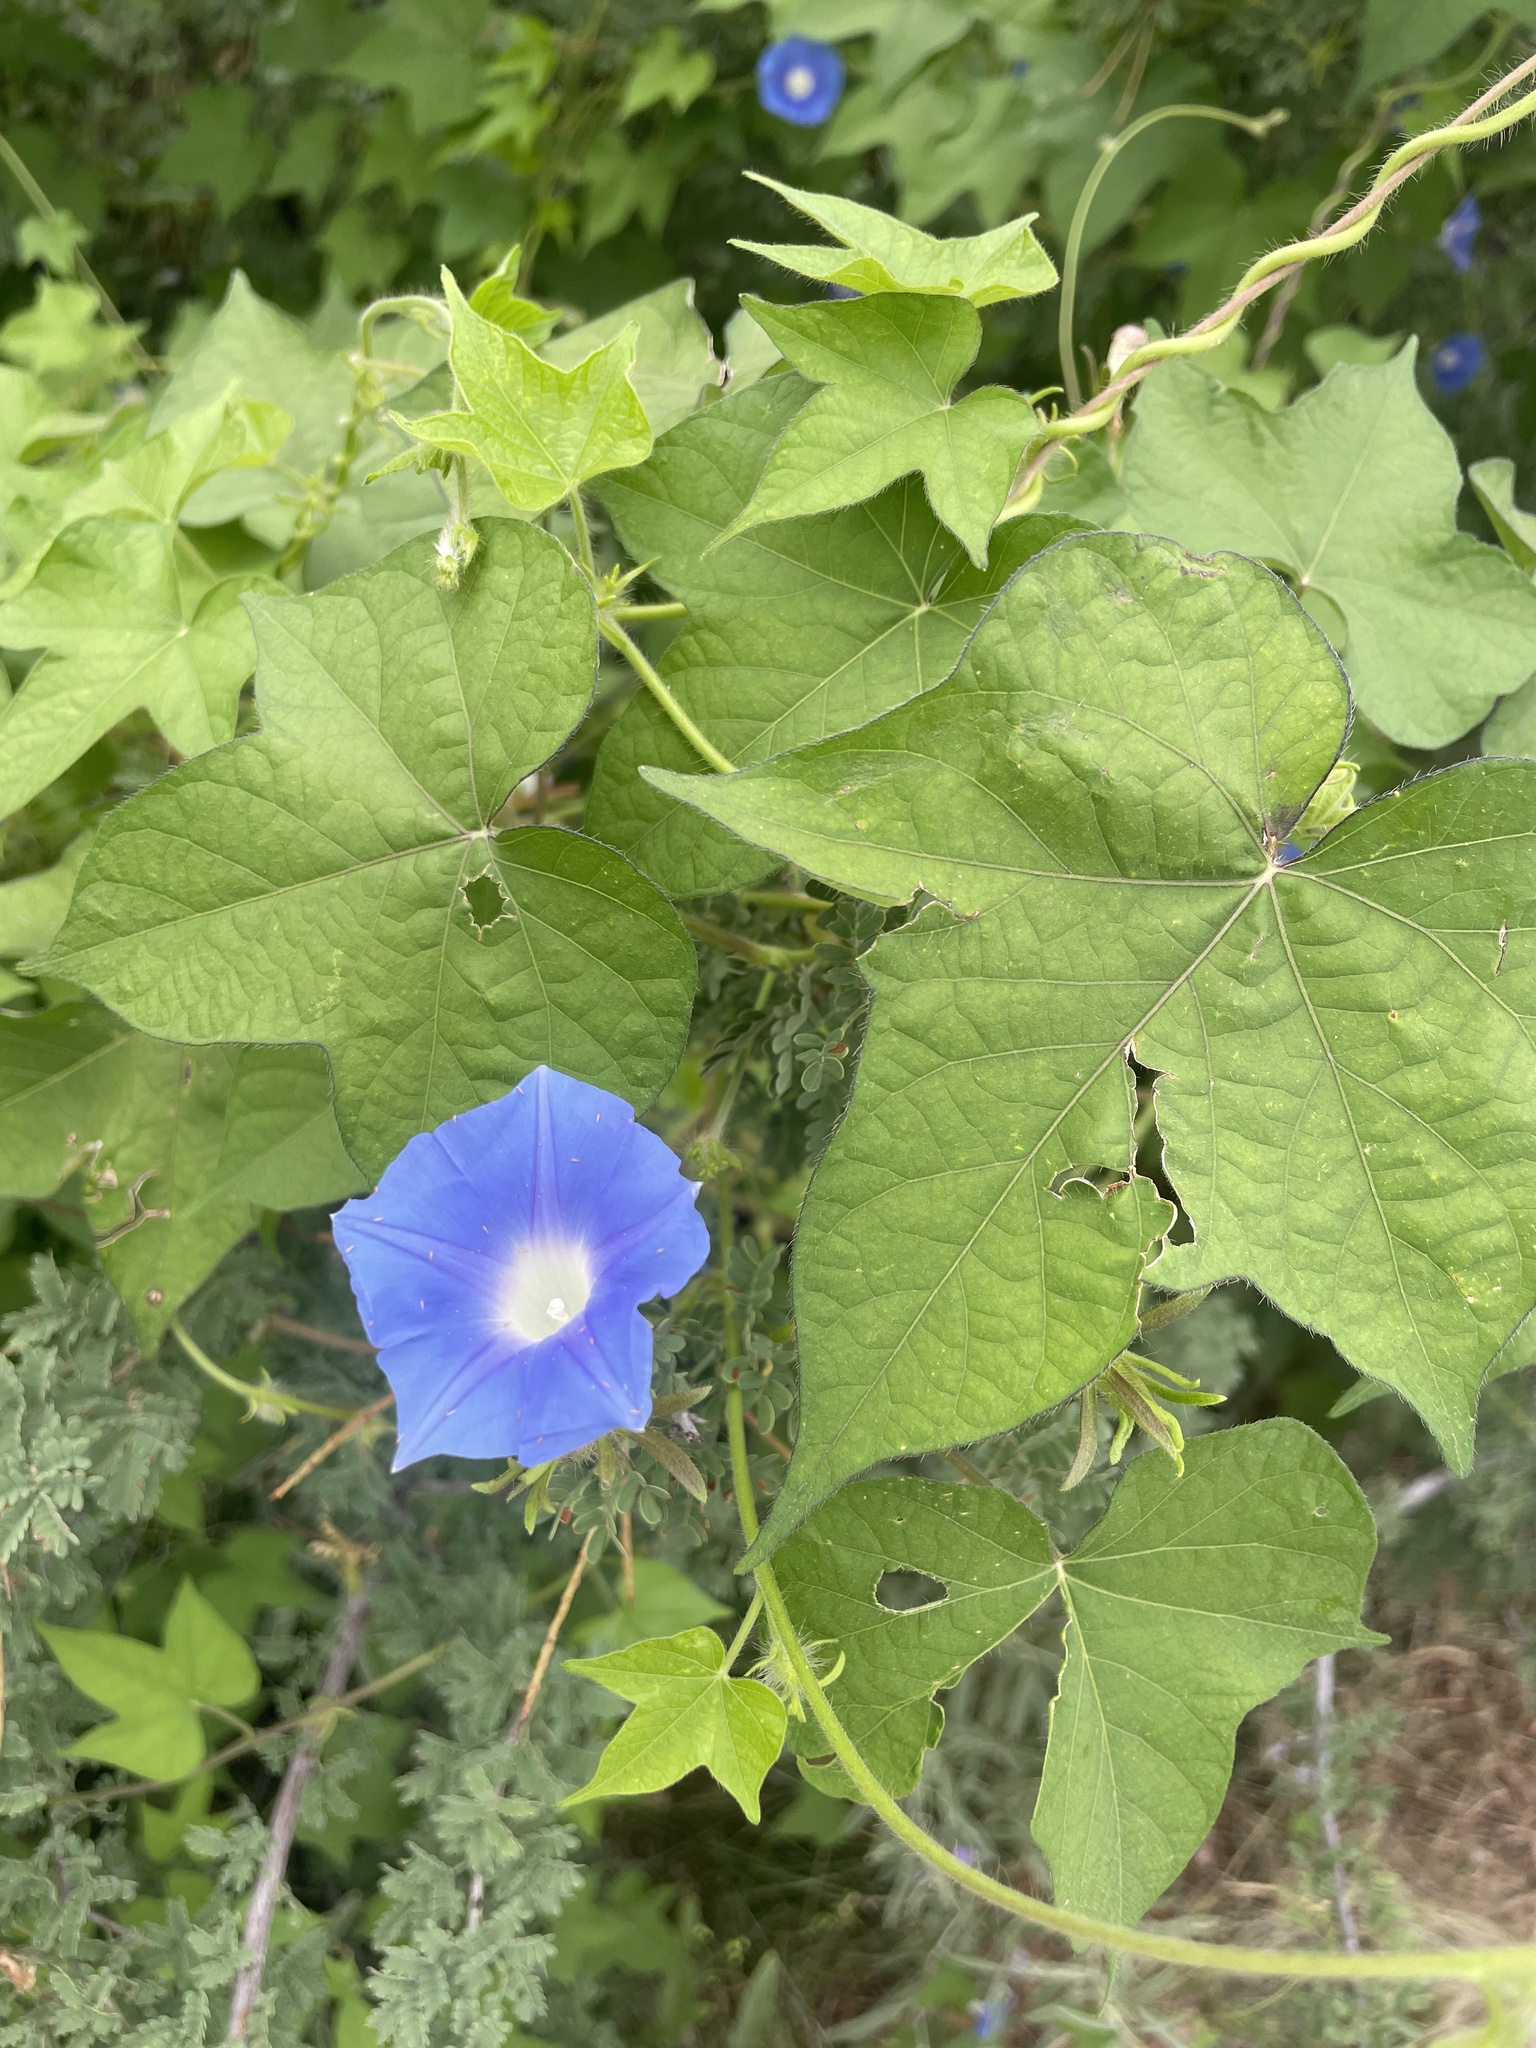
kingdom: Plantae
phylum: Tracheophyta
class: Magnoliopsida
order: Solanales
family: Convolvulaceae
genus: Ipomoea
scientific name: Ipomoea hederacea
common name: Ivy-leaved morning-glory
